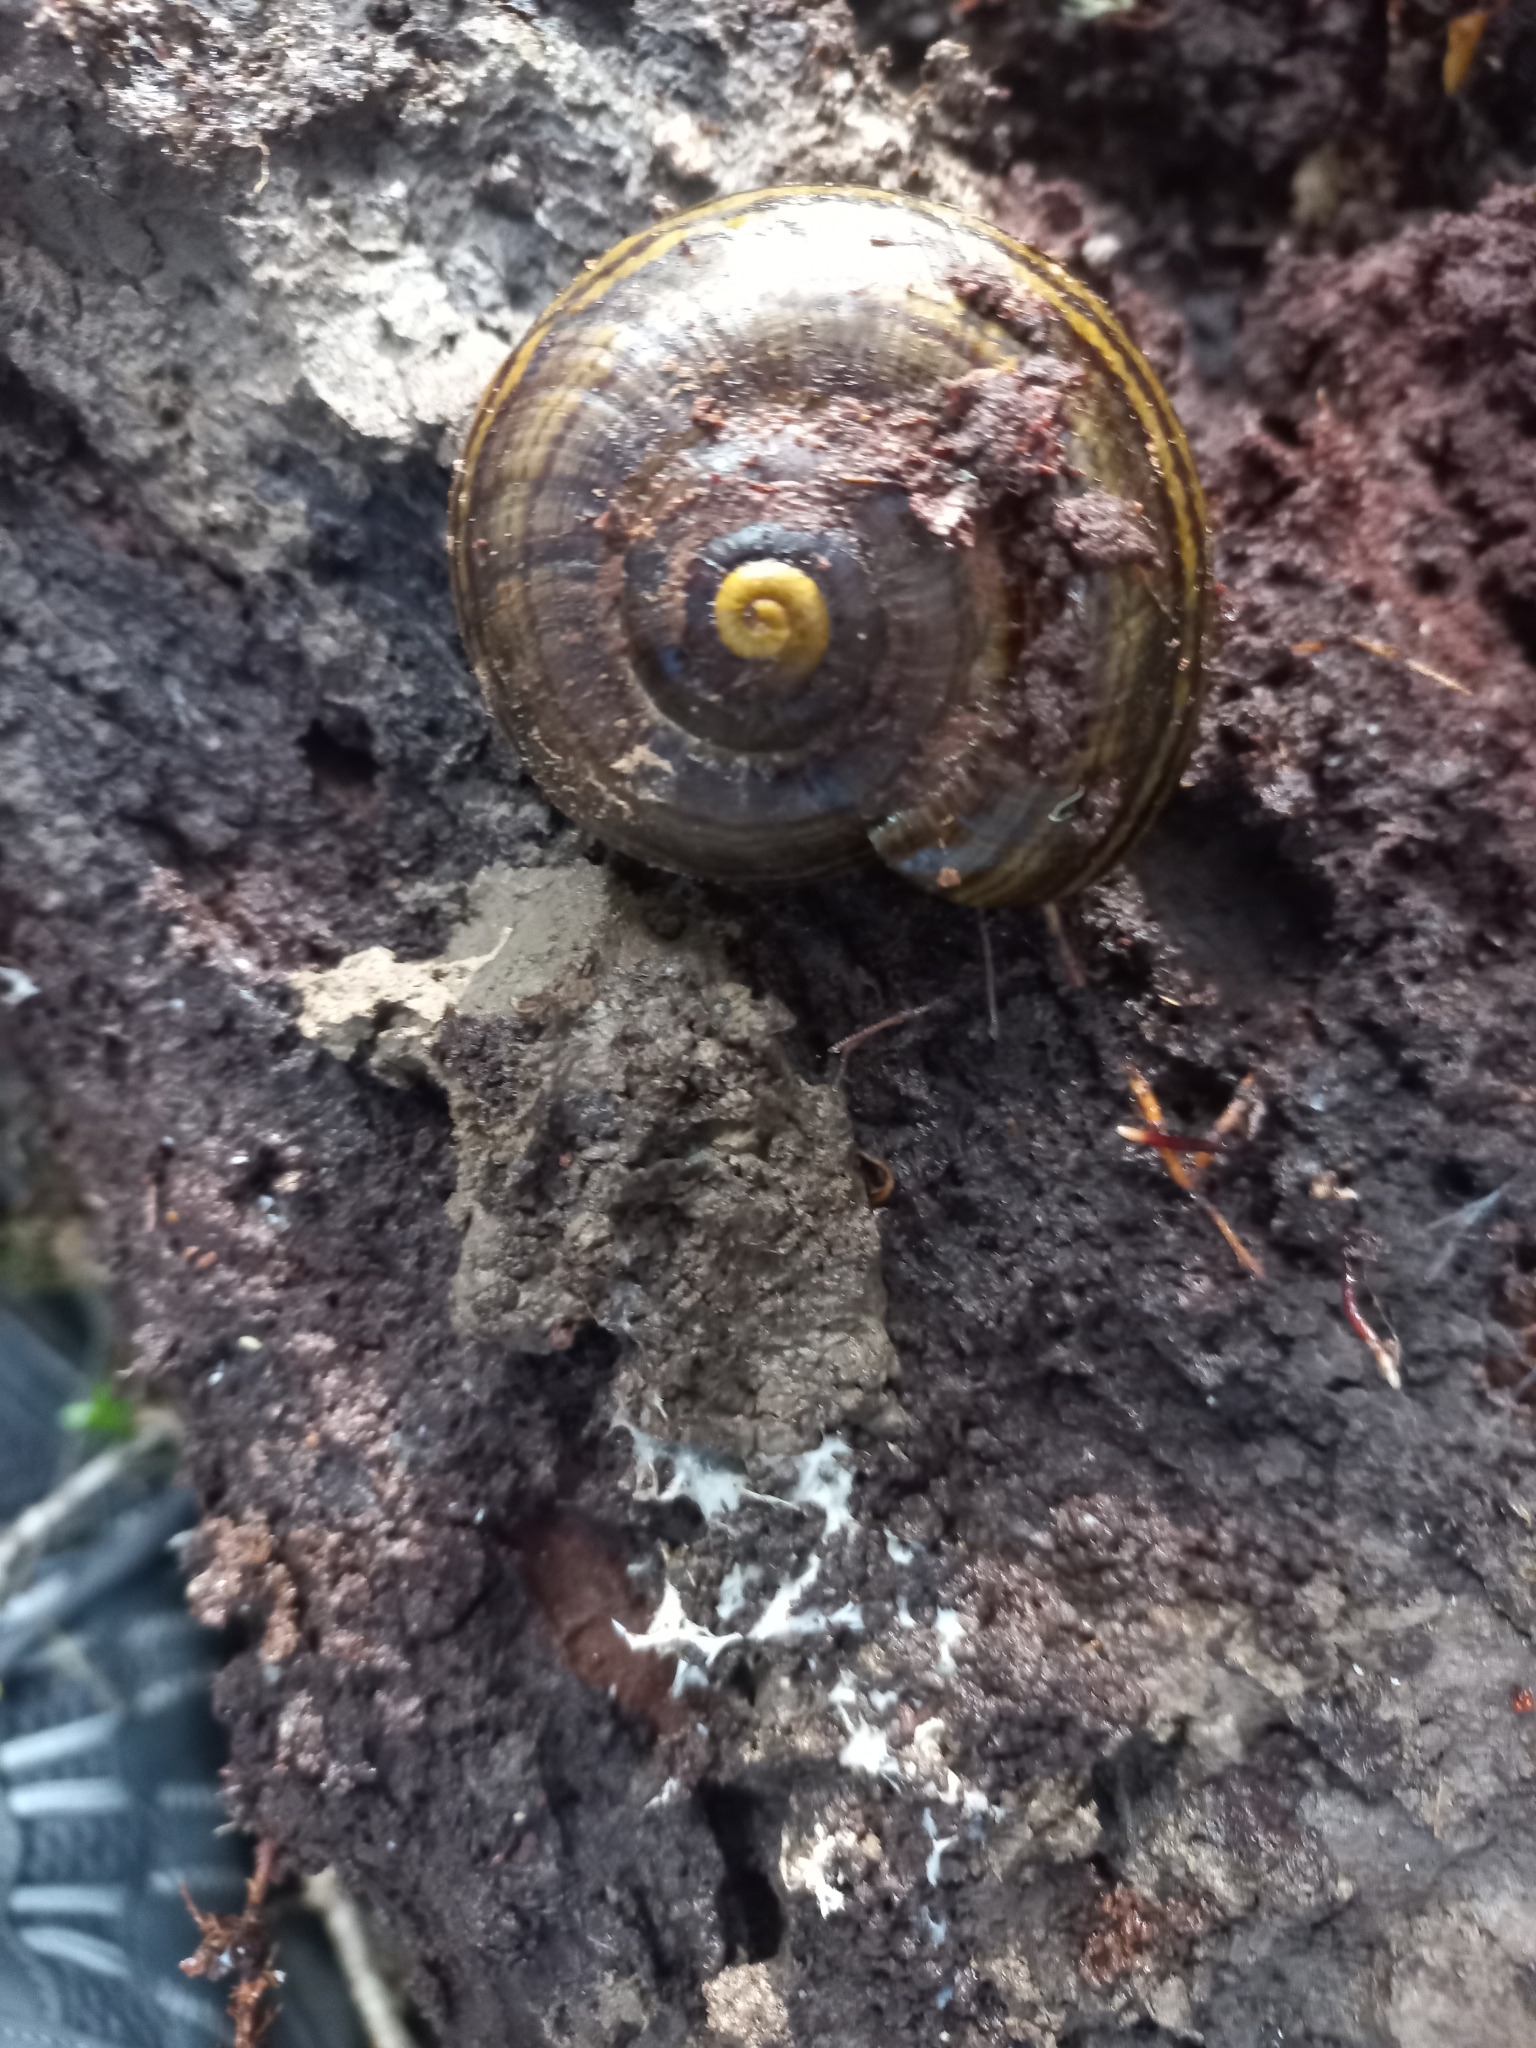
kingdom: Animalia
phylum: Mollusca
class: Gastropoda
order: Stylommatophora
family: Rhytididae
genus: Powelliphanta
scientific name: Powelliphanta hochstetteri
